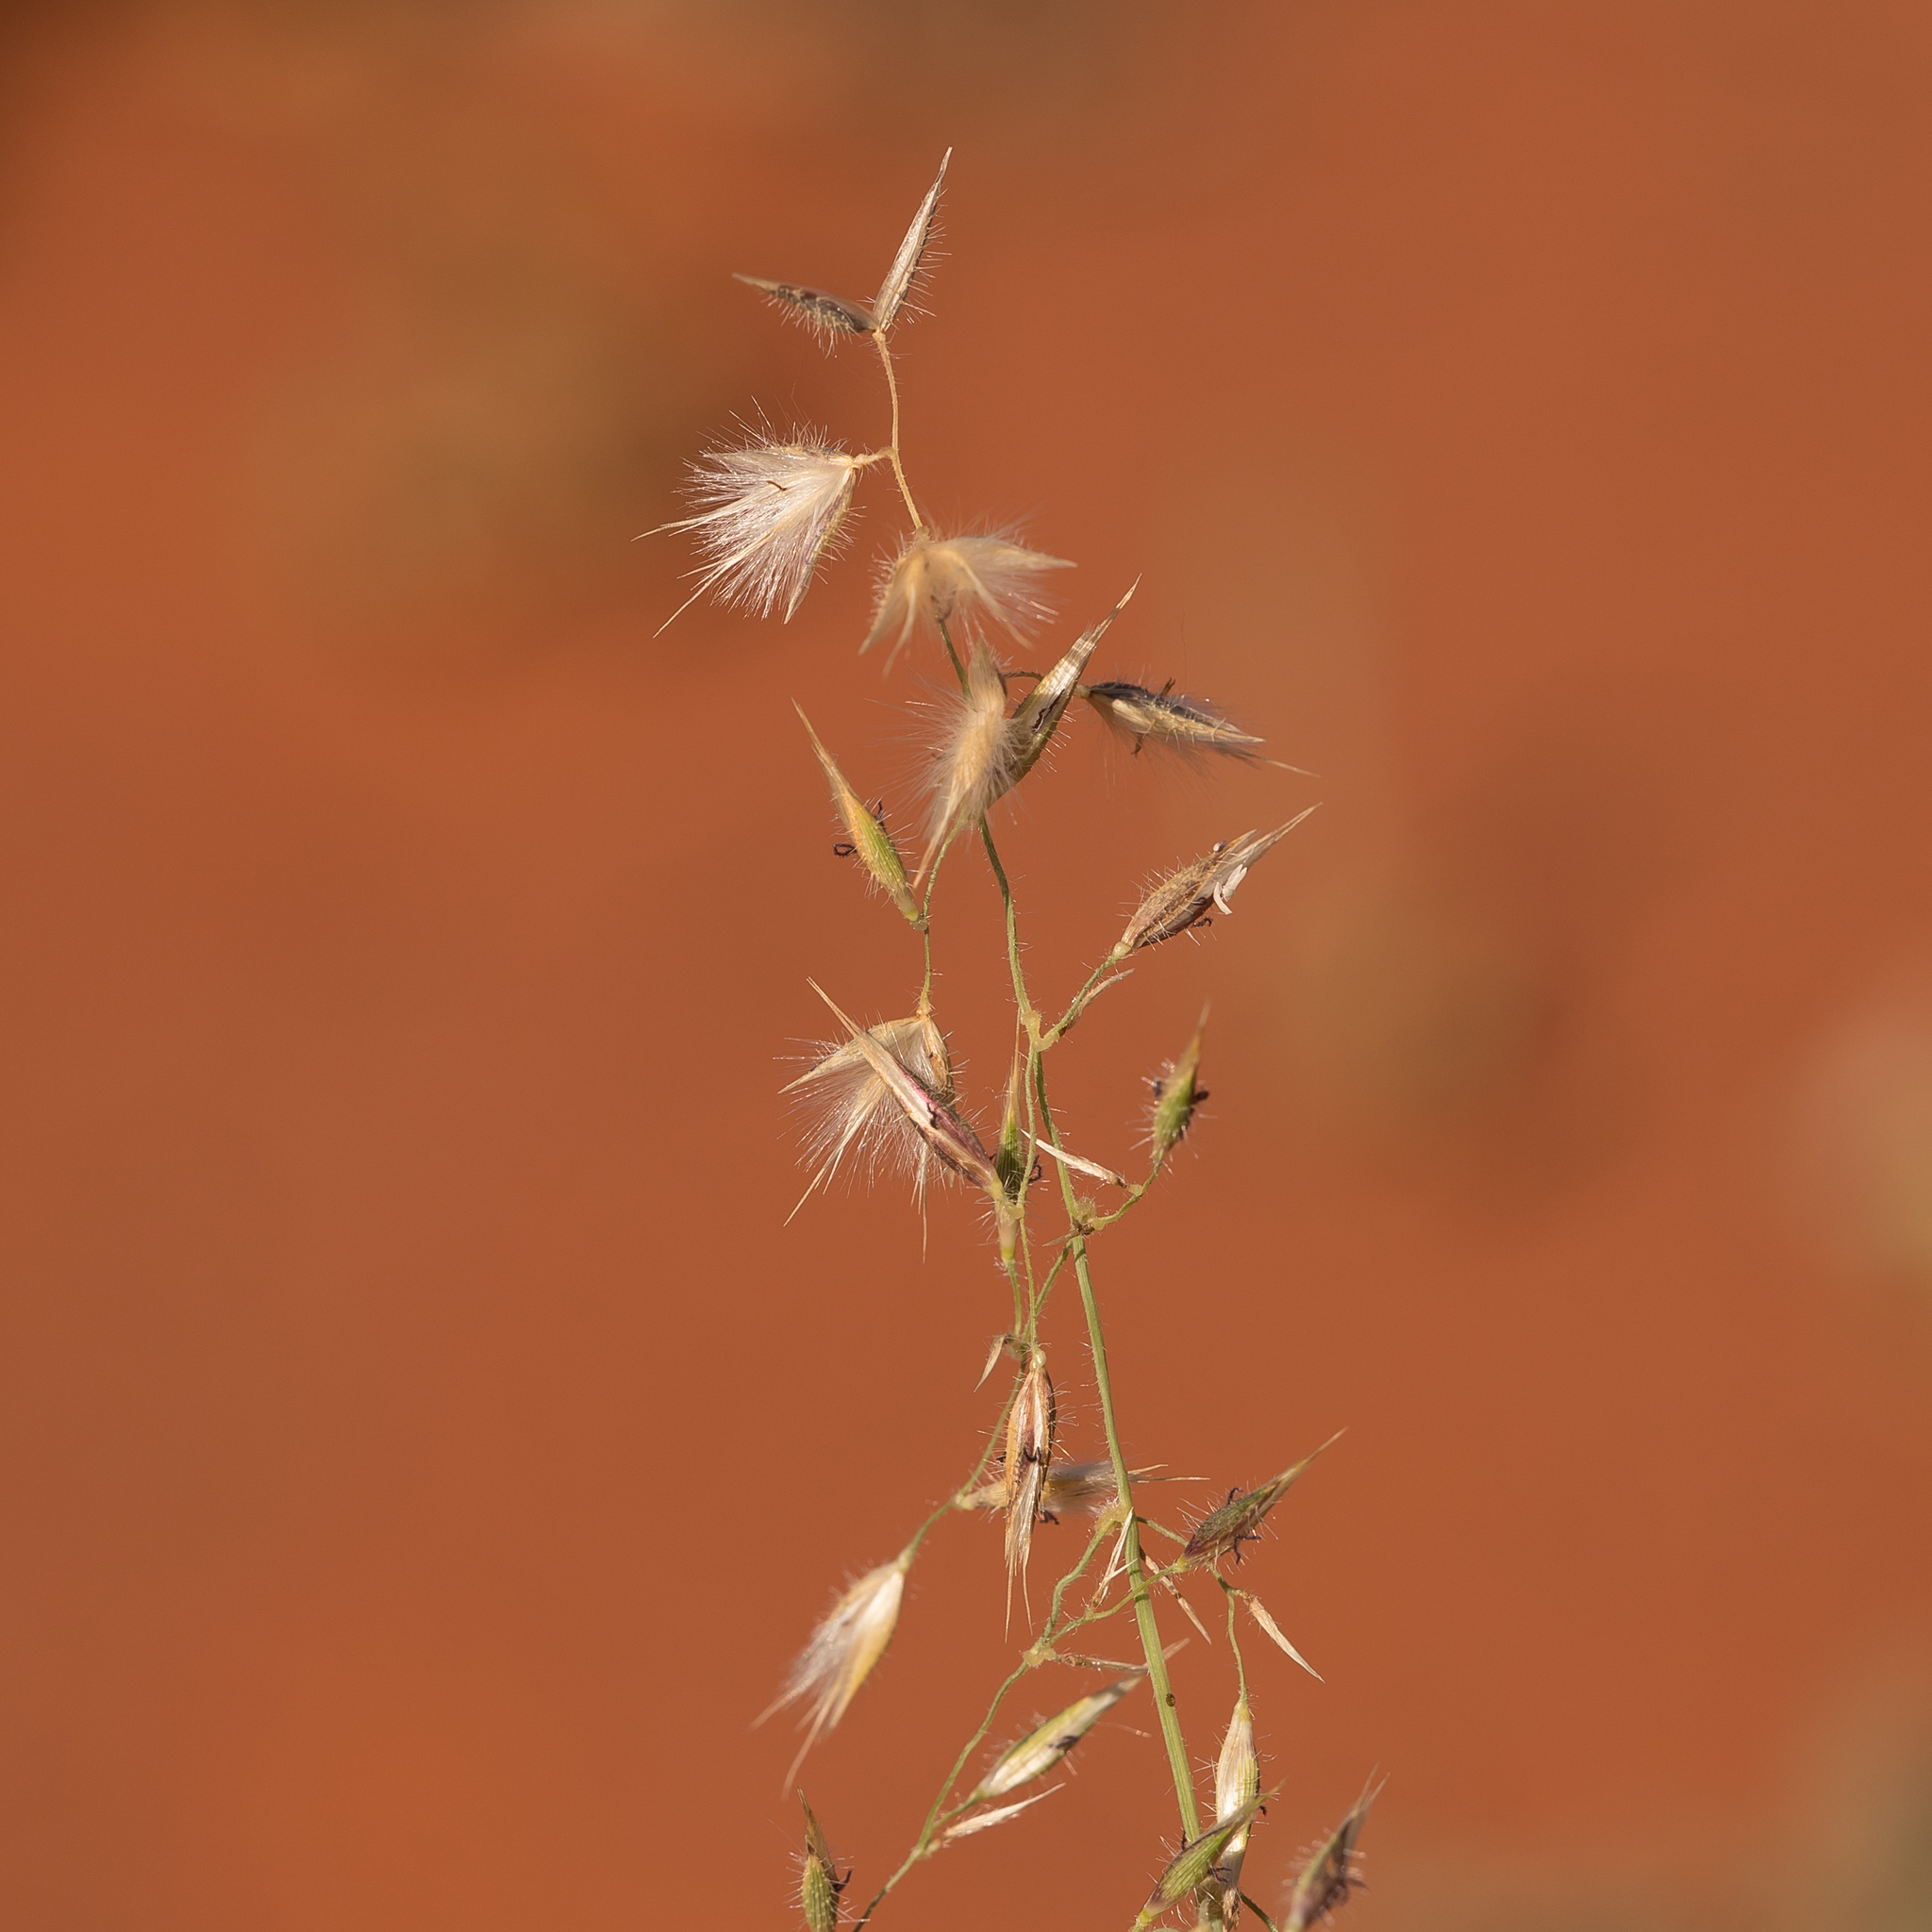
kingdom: Plantae
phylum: Tracheophyta
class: Liliopsida
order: Poales
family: Poaceae
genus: Eriachne
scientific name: Eriachne aristidea
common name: Three-awn wanderrie grass
